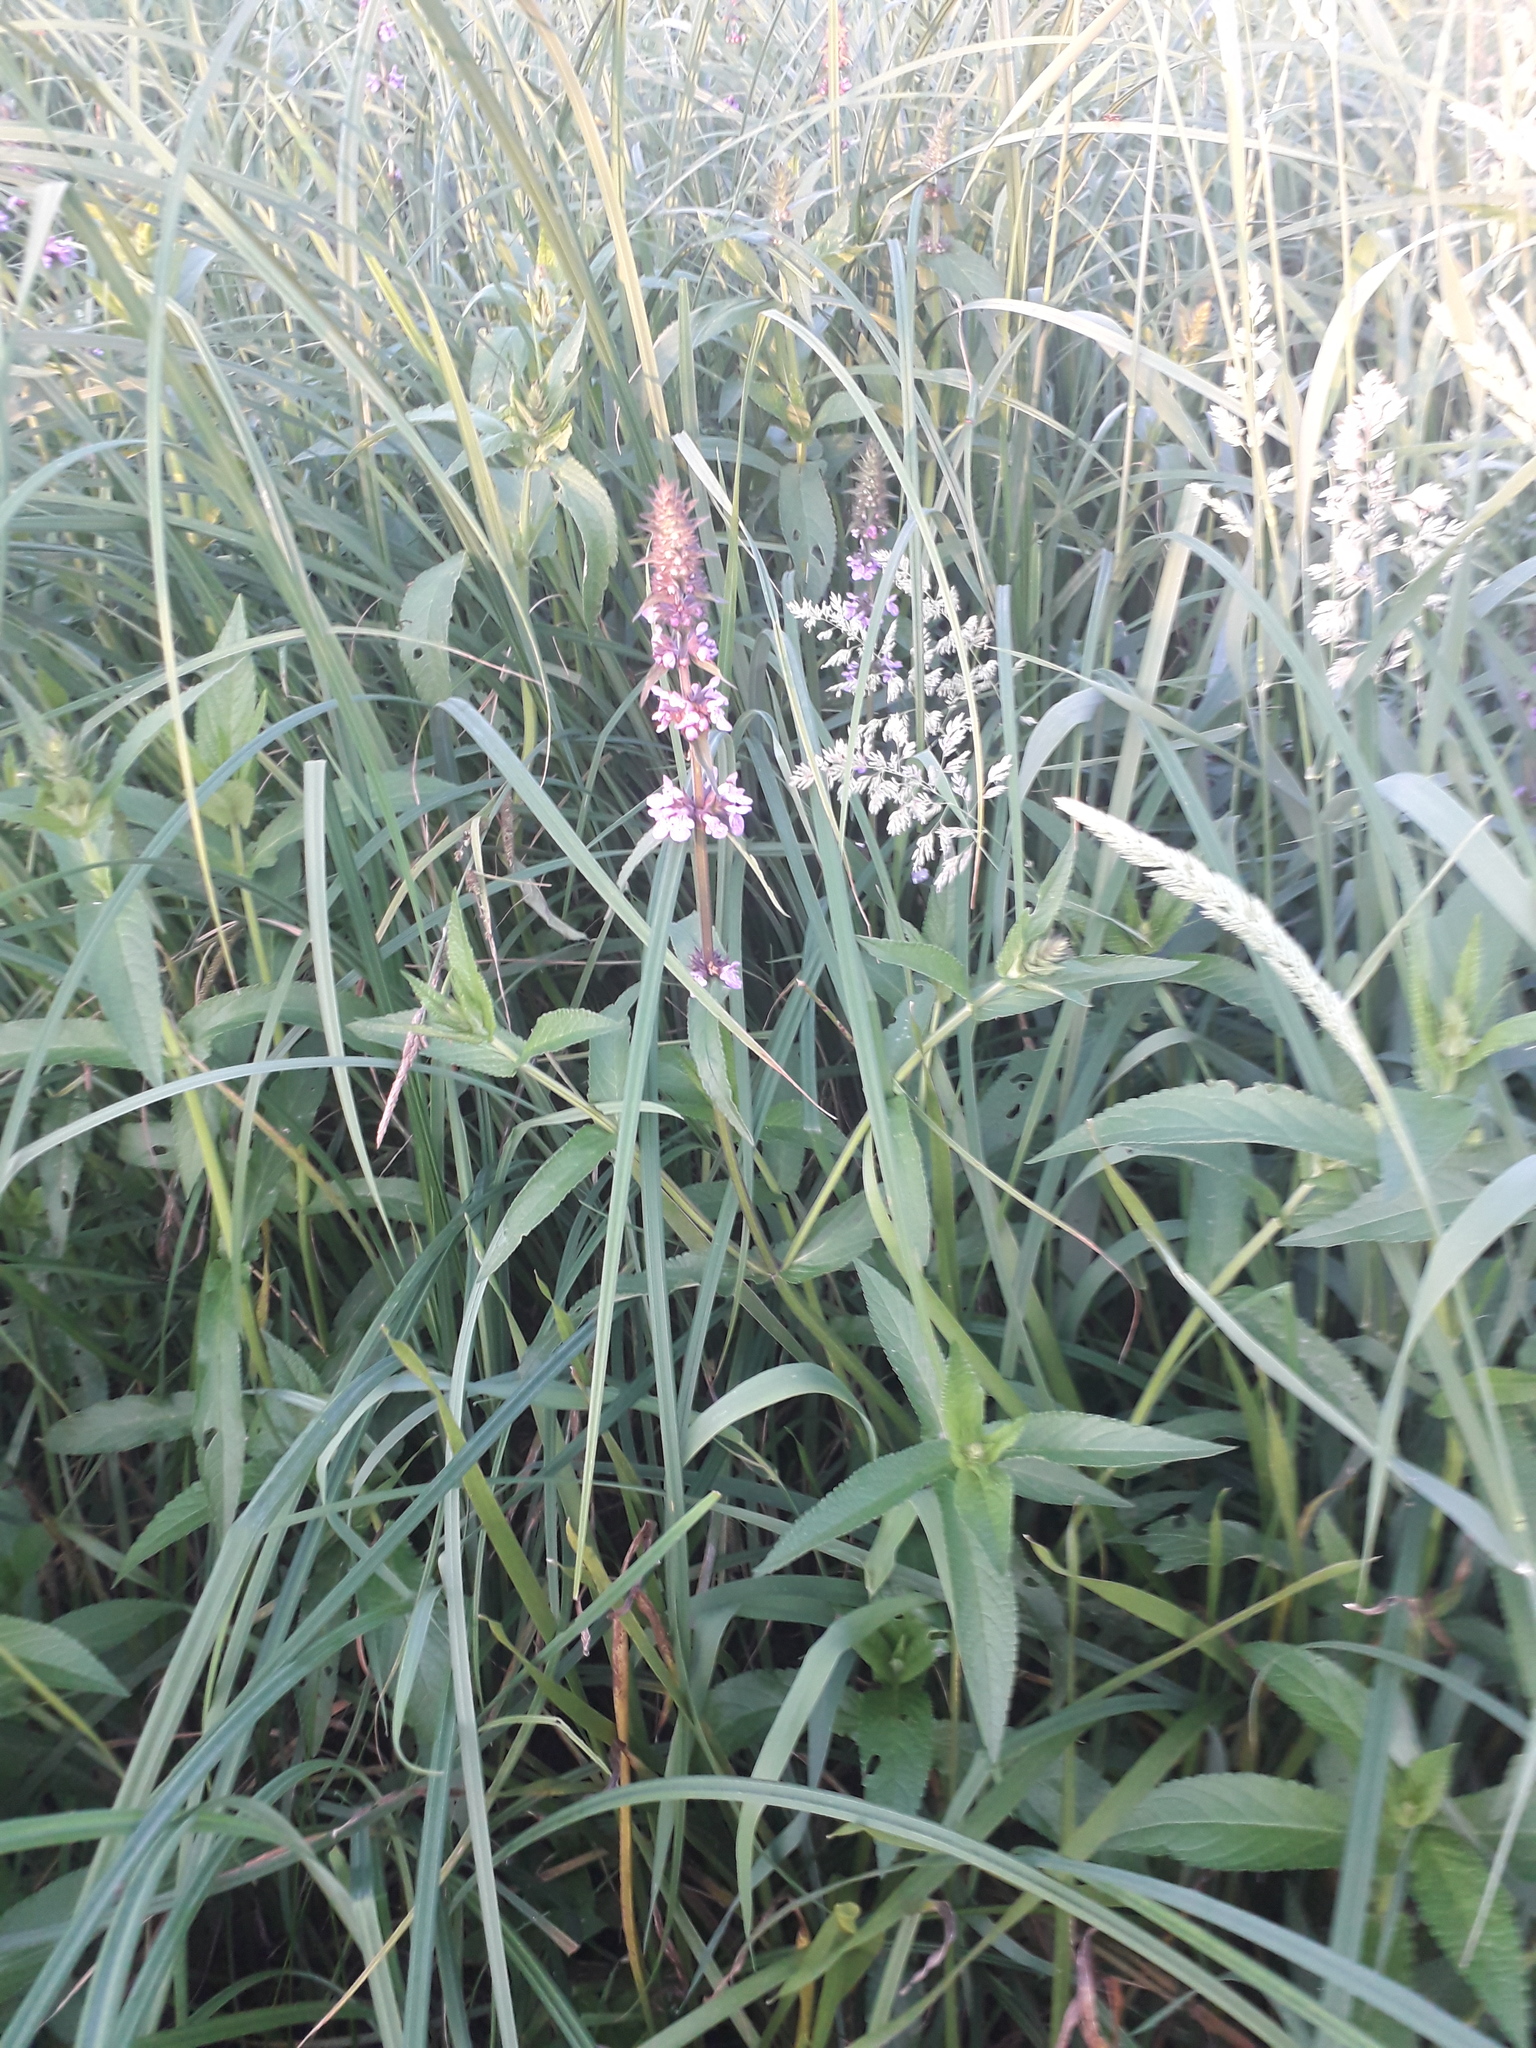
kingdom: Plantae
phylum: Tracheophyta
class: Magnoliopsida
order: Lamiales
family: Lamiaceae
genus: Stachys
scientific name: Stachys palustris
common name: Marsh woundwort
